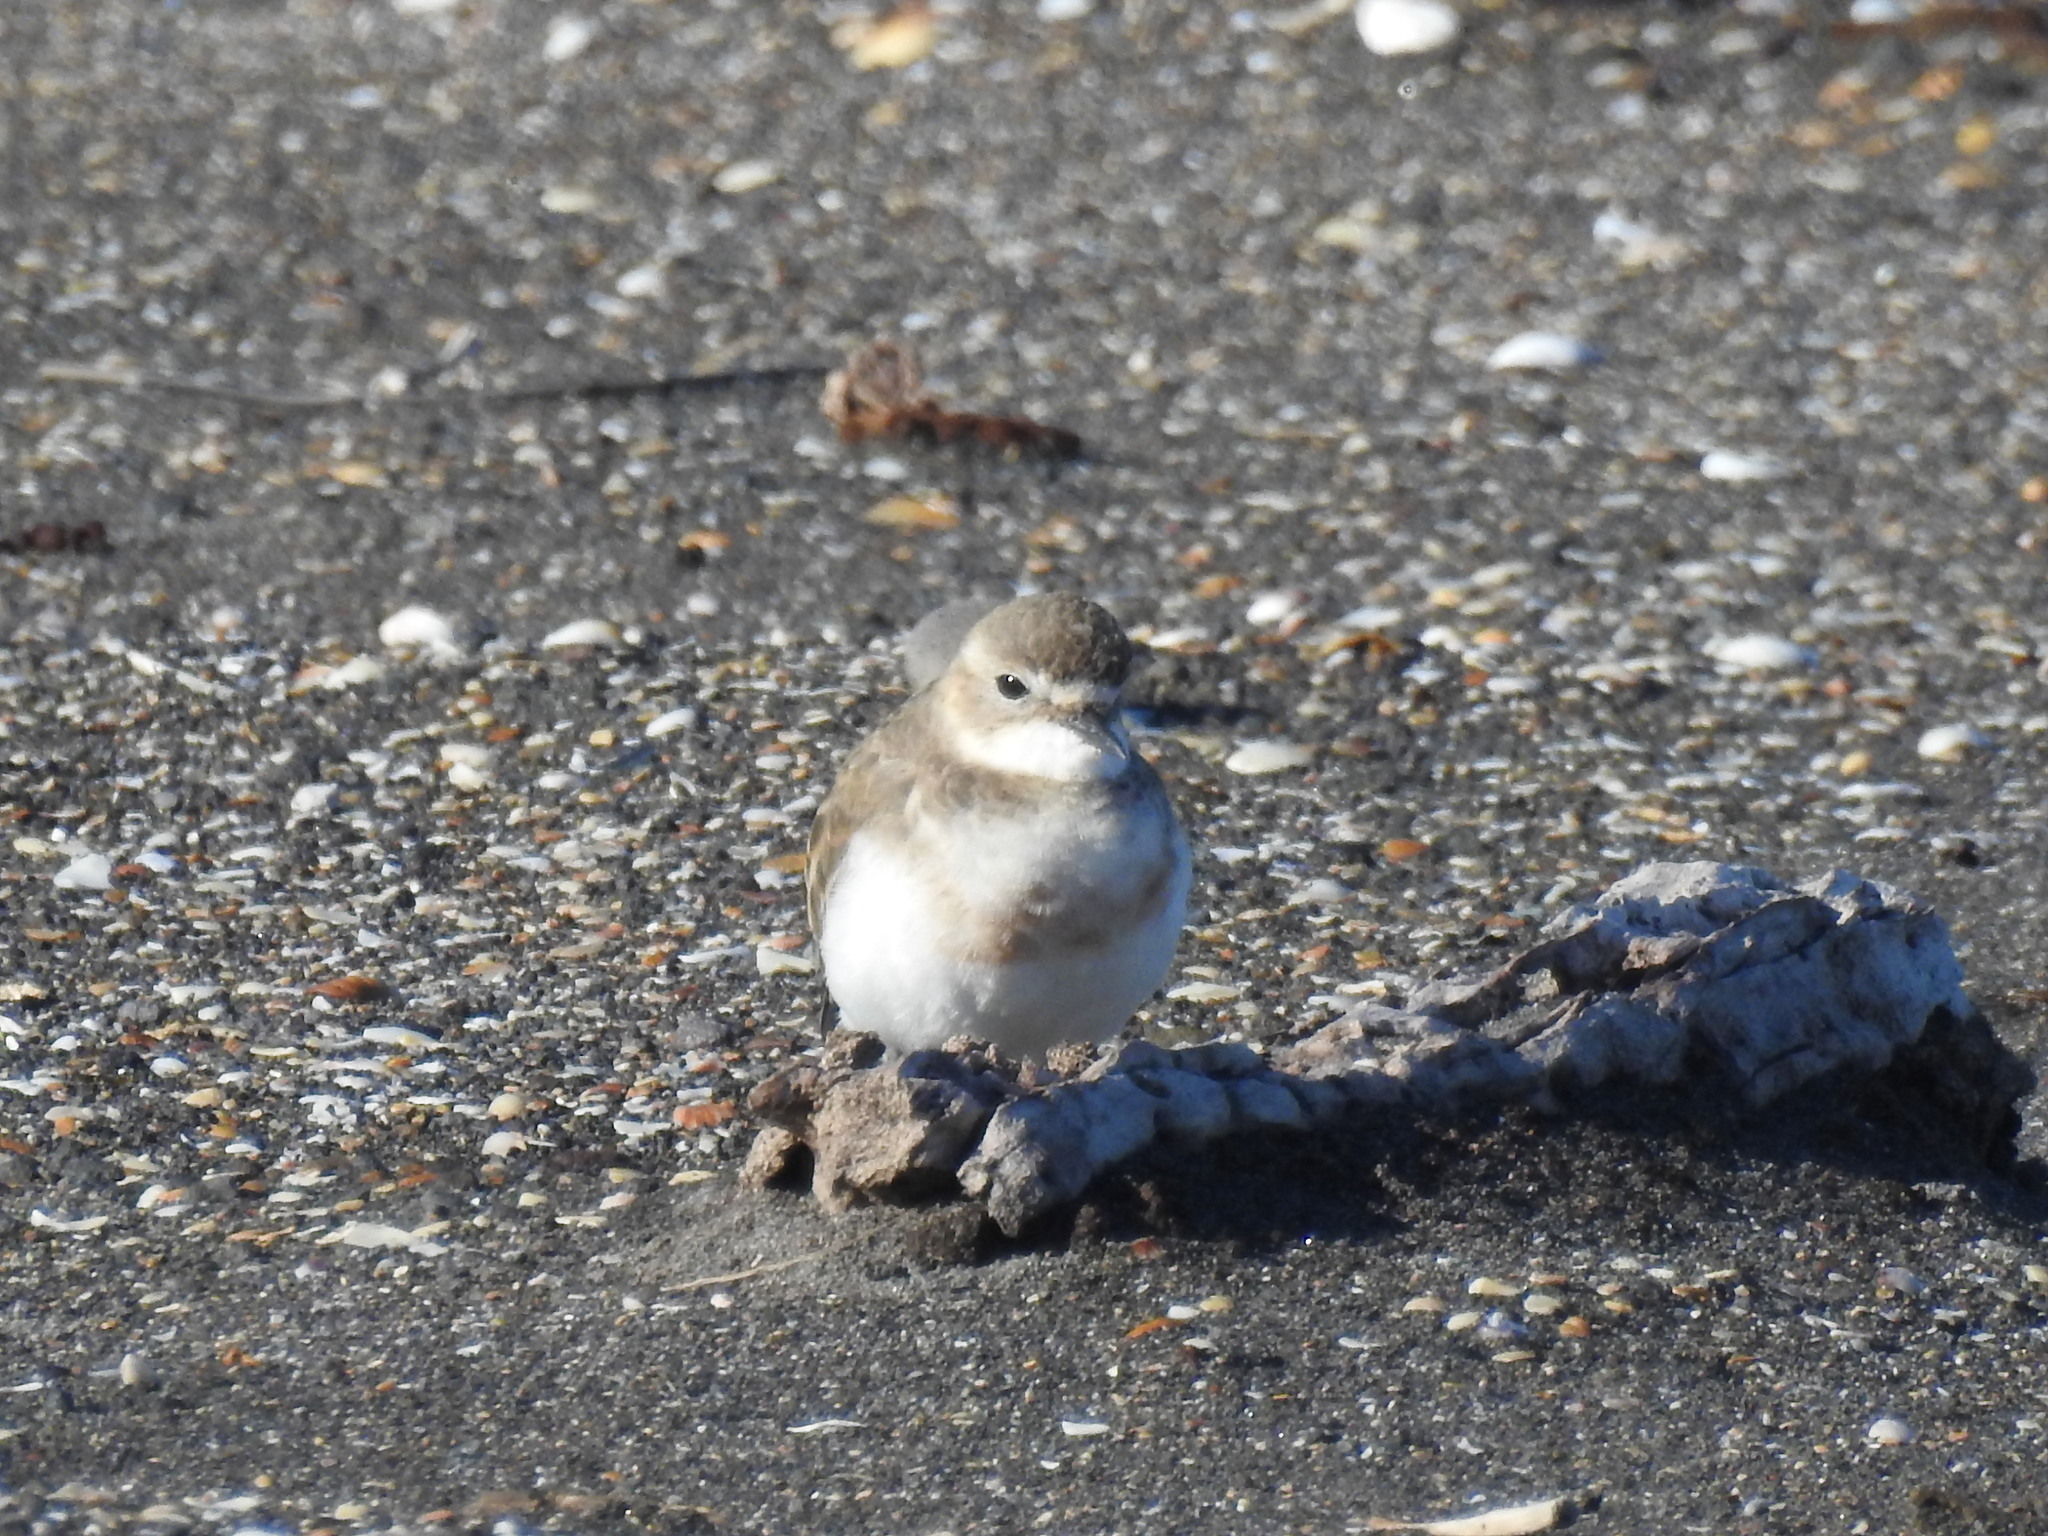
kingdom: Animalia
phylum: Chordata
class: Aves
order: Charadriiformes
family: Charadriidae
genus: Anarhynchus
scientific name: Anarhynchus
